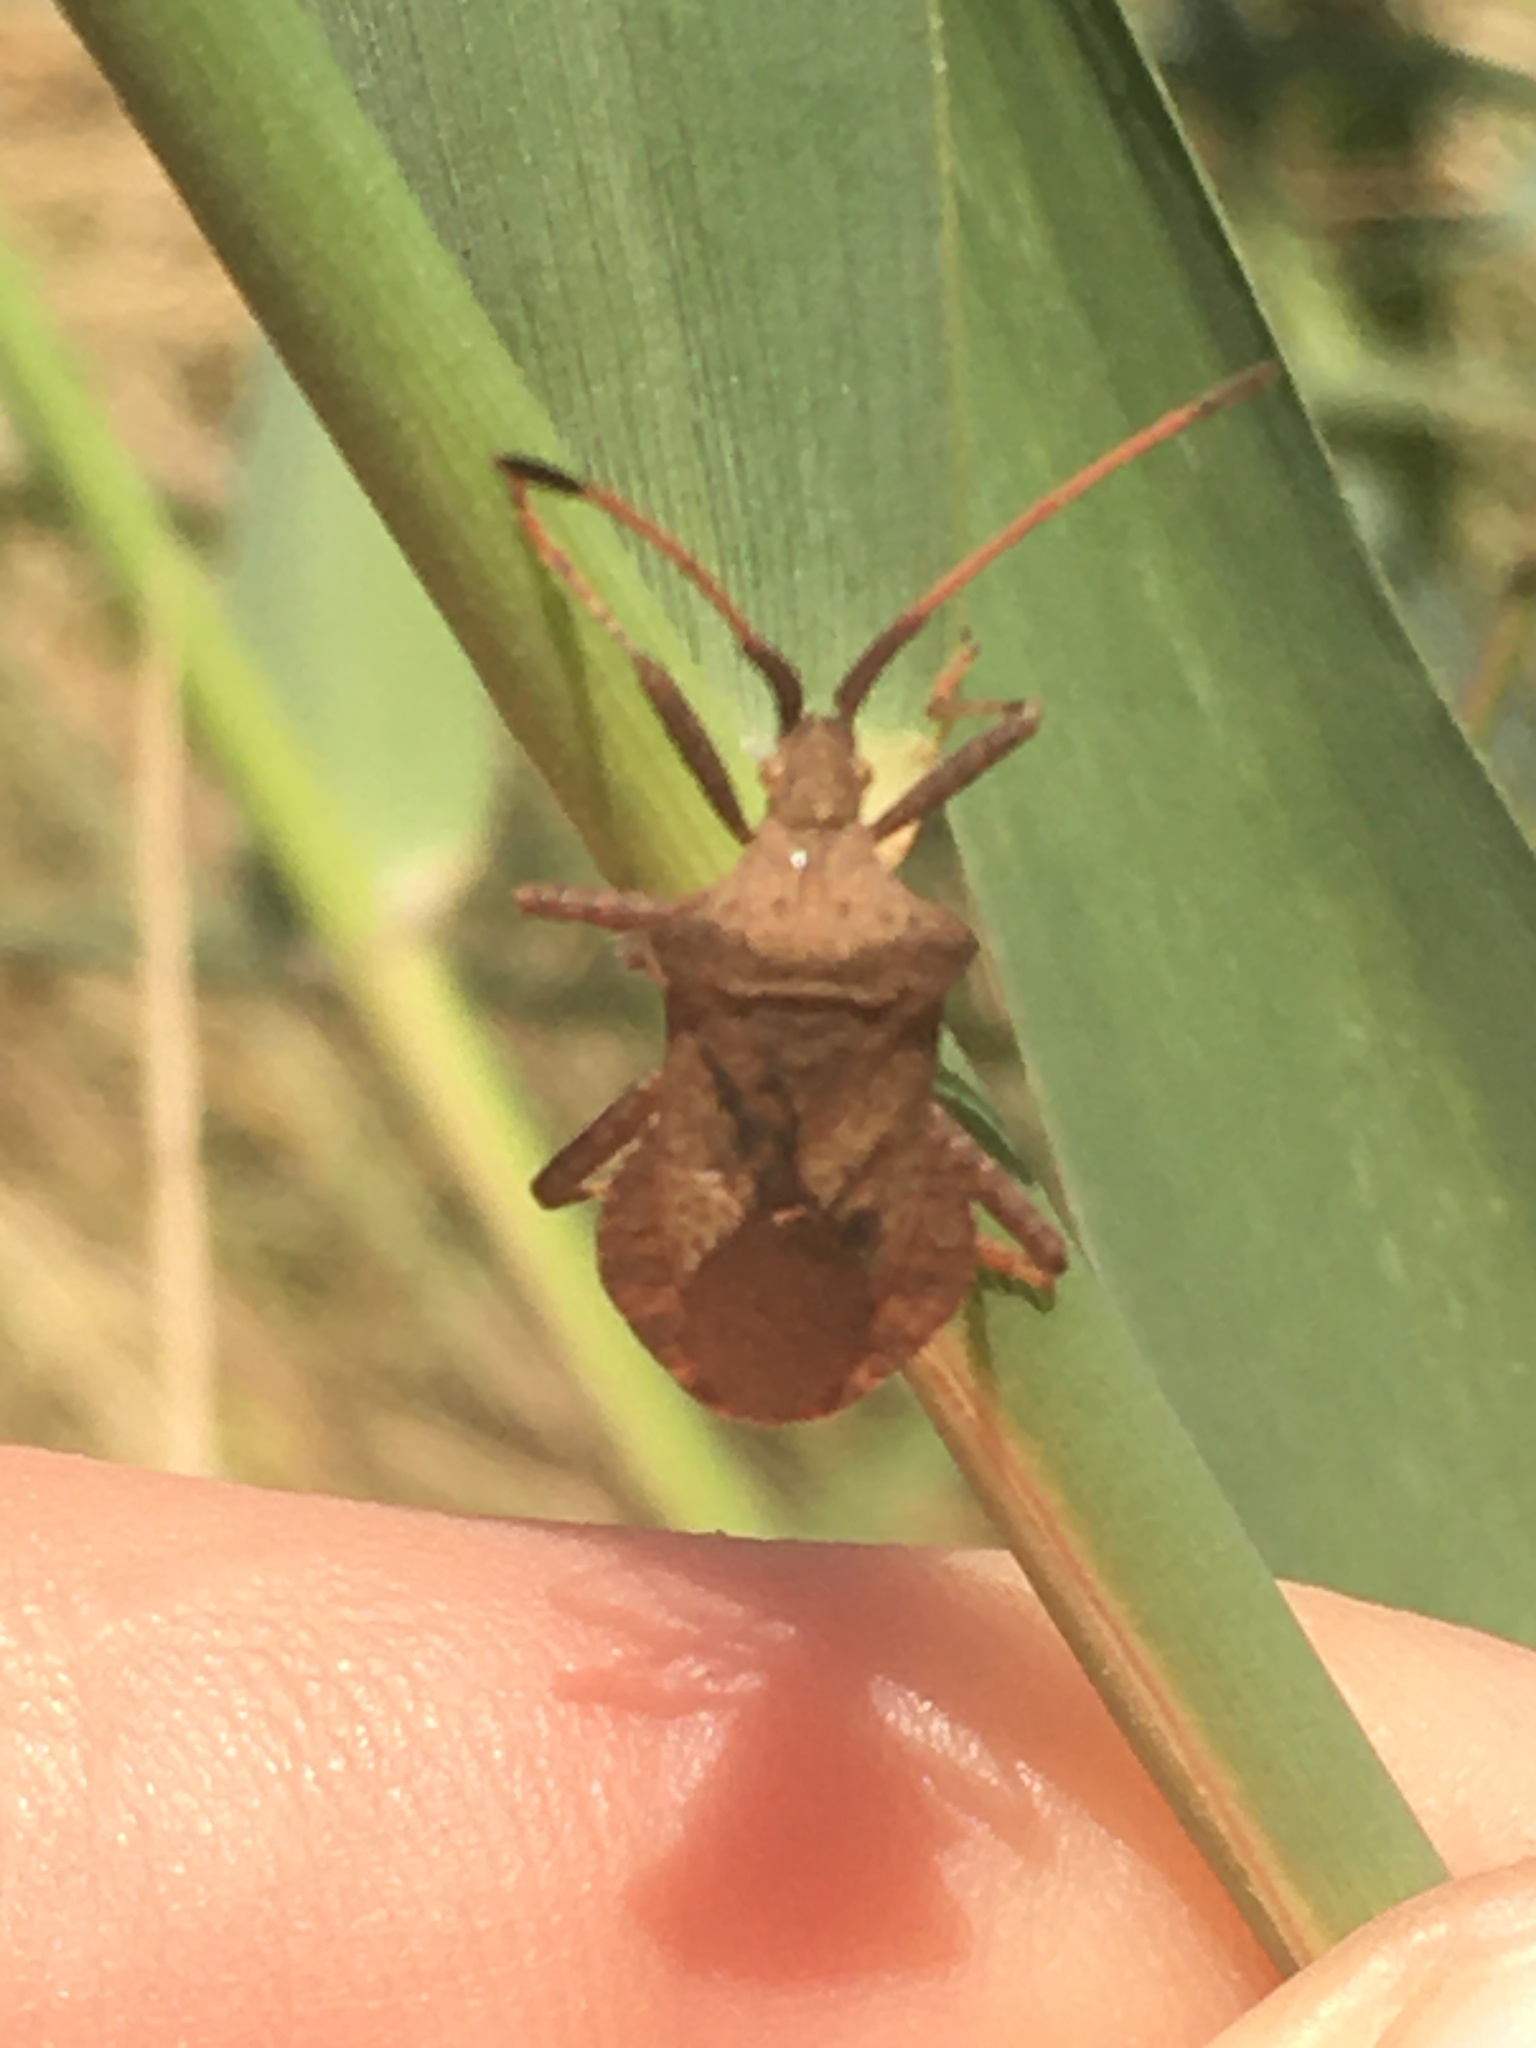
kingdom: Animalia
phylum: Arthropoda
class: Insecta
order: Hemiptera
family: Coreidae
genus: Coreus
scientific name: Coreus marginatus
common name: Dock bug
